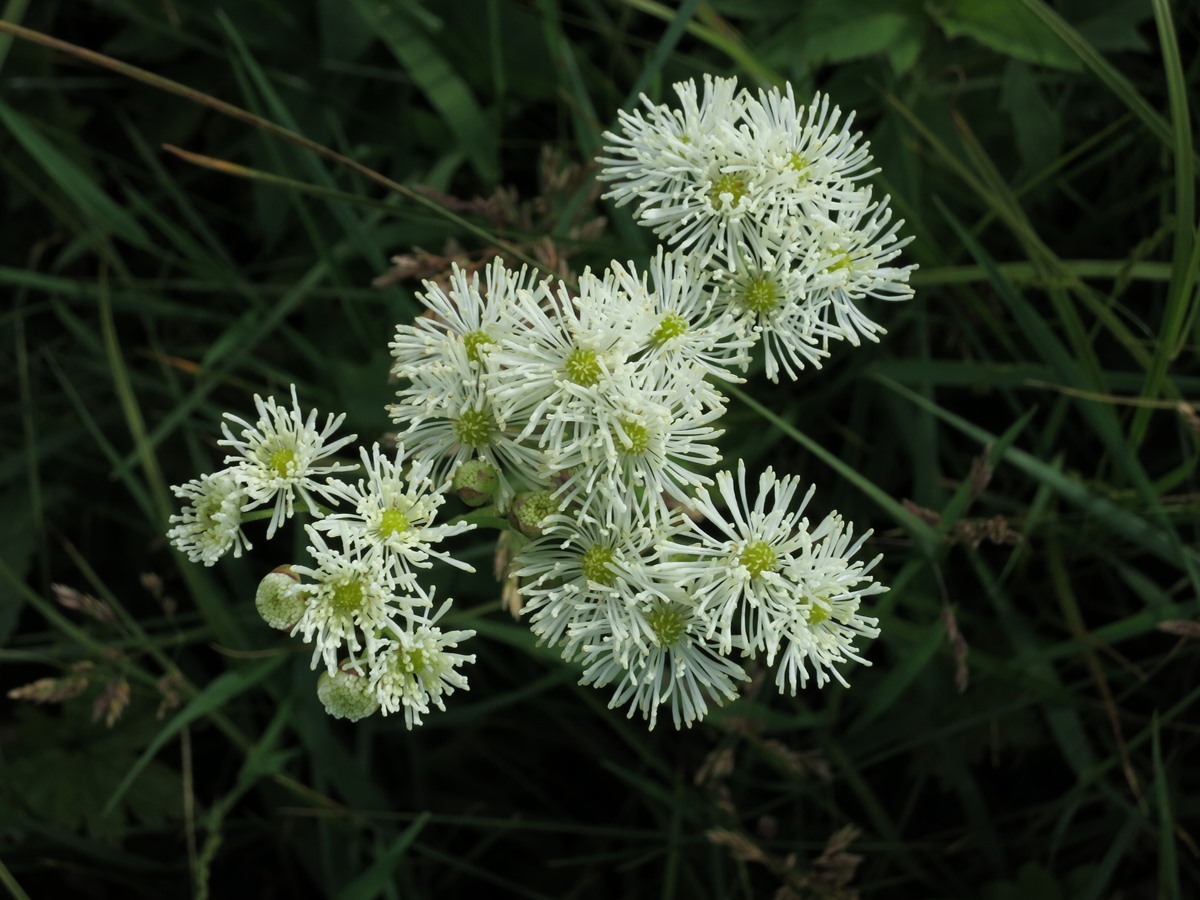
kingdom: Plantae
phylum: Tracheophyta
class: Magnoliopsida
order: Ranunculales
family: Ranunculaceae
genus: Trautvetteria
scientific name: Trautvetteria carolinensis
